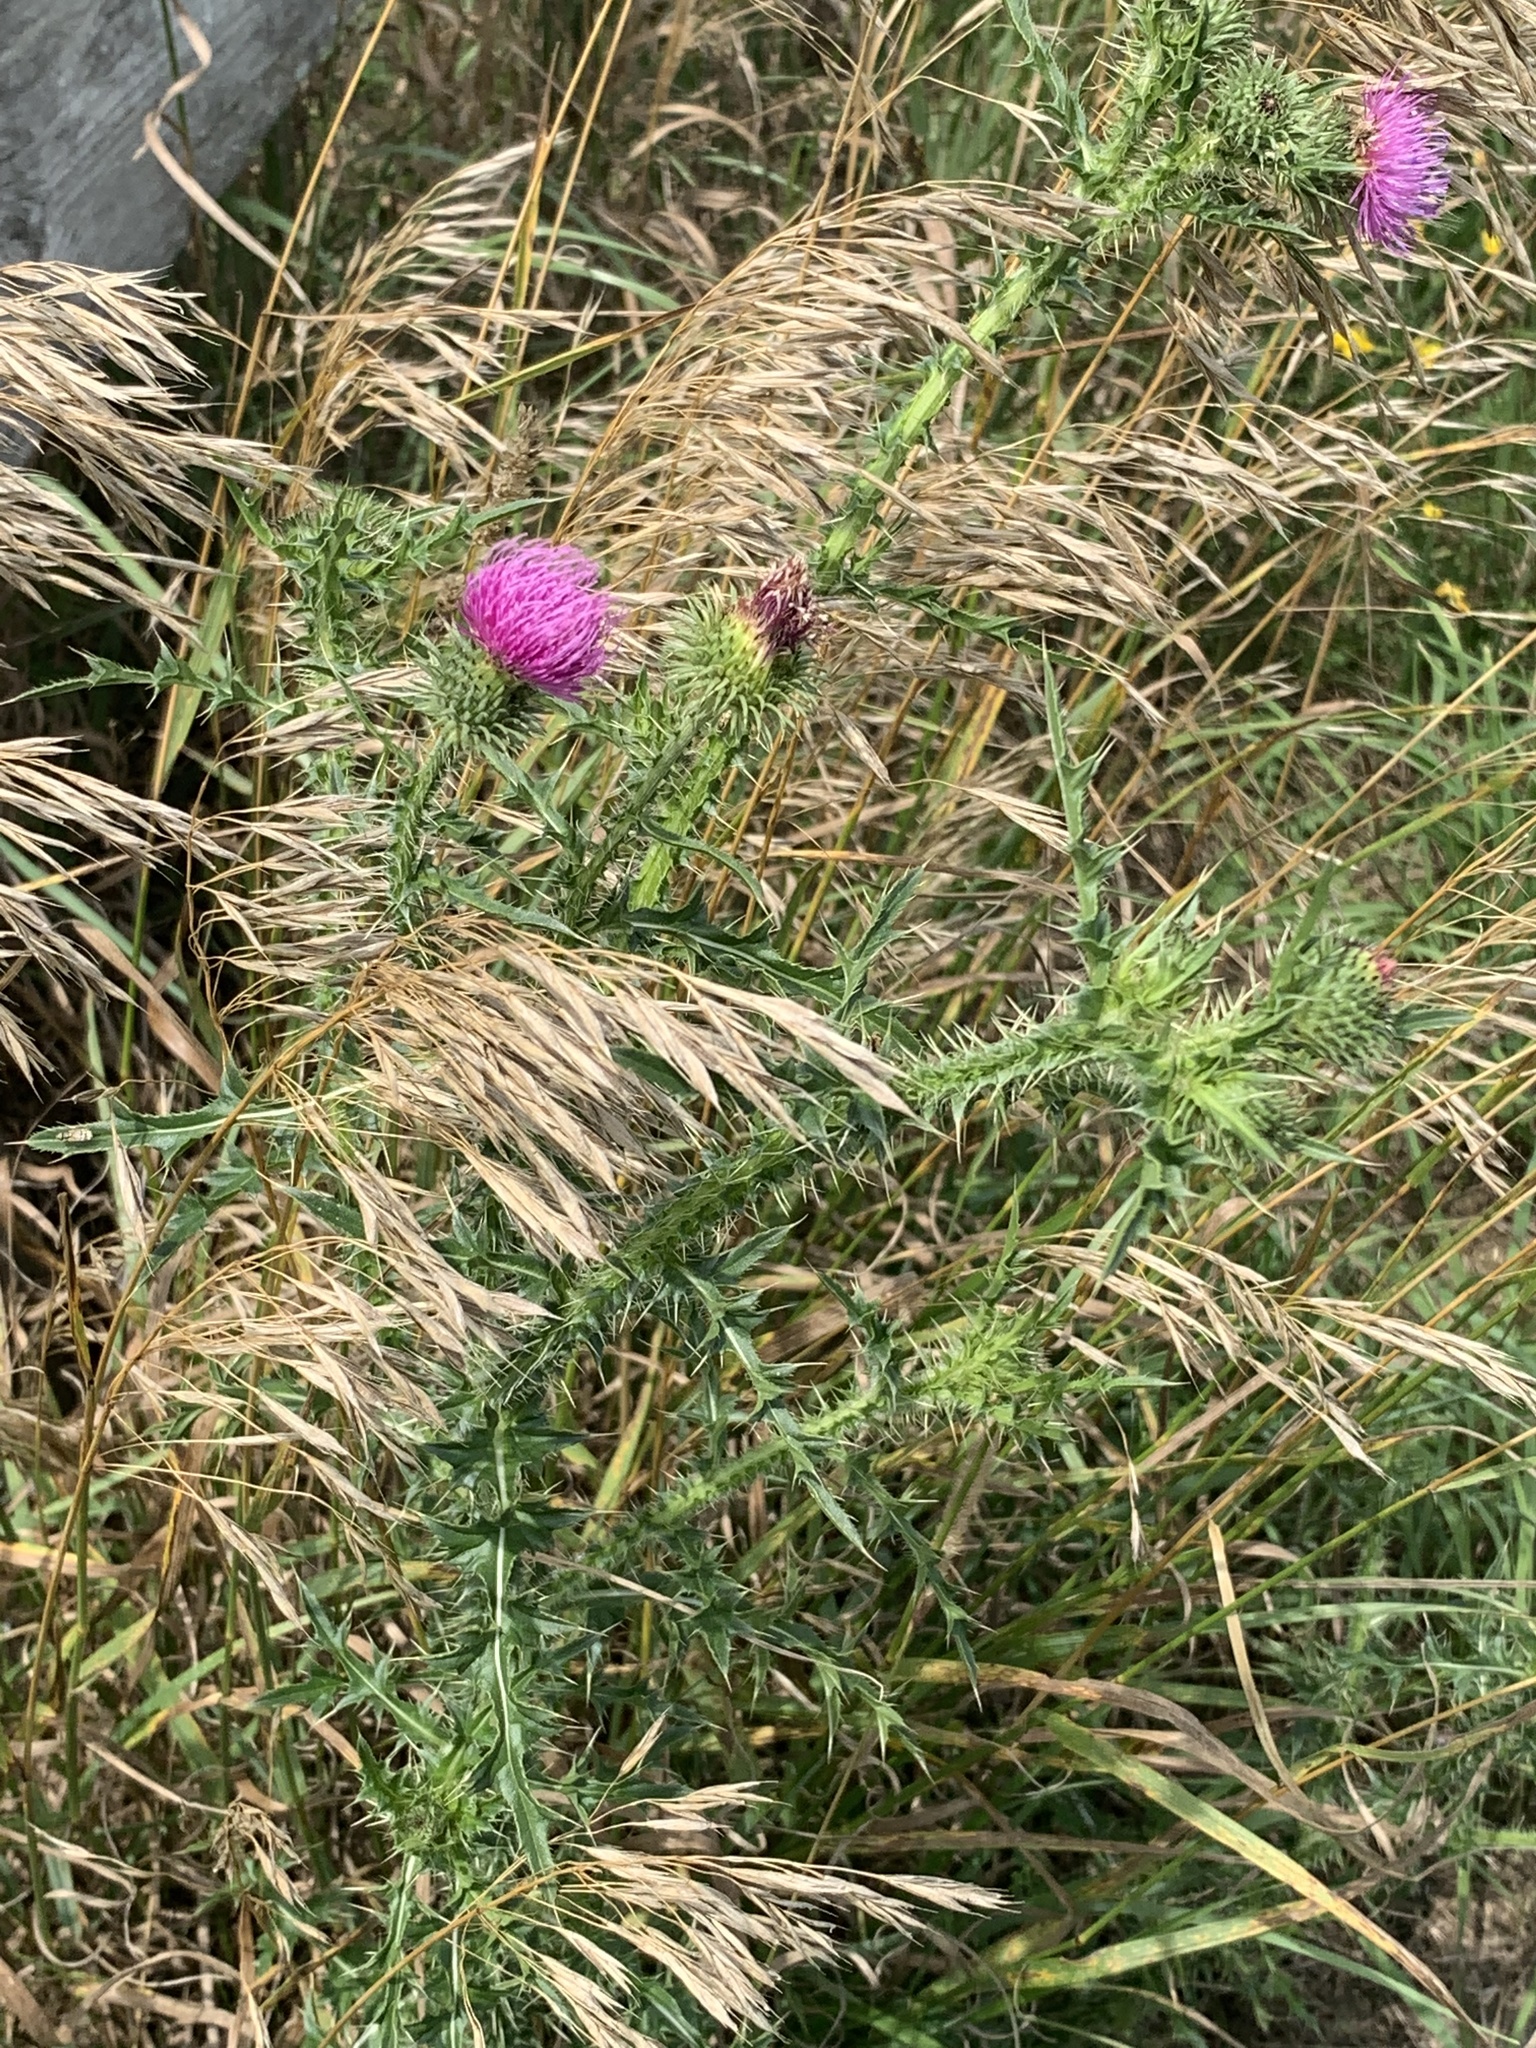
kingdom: Plantae
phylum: Tracheophyta
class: Magnoliopsida
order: Asterales
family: Asteraceae
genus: Cirsium
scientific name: Cirsium vulgare
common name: Bull thistle
